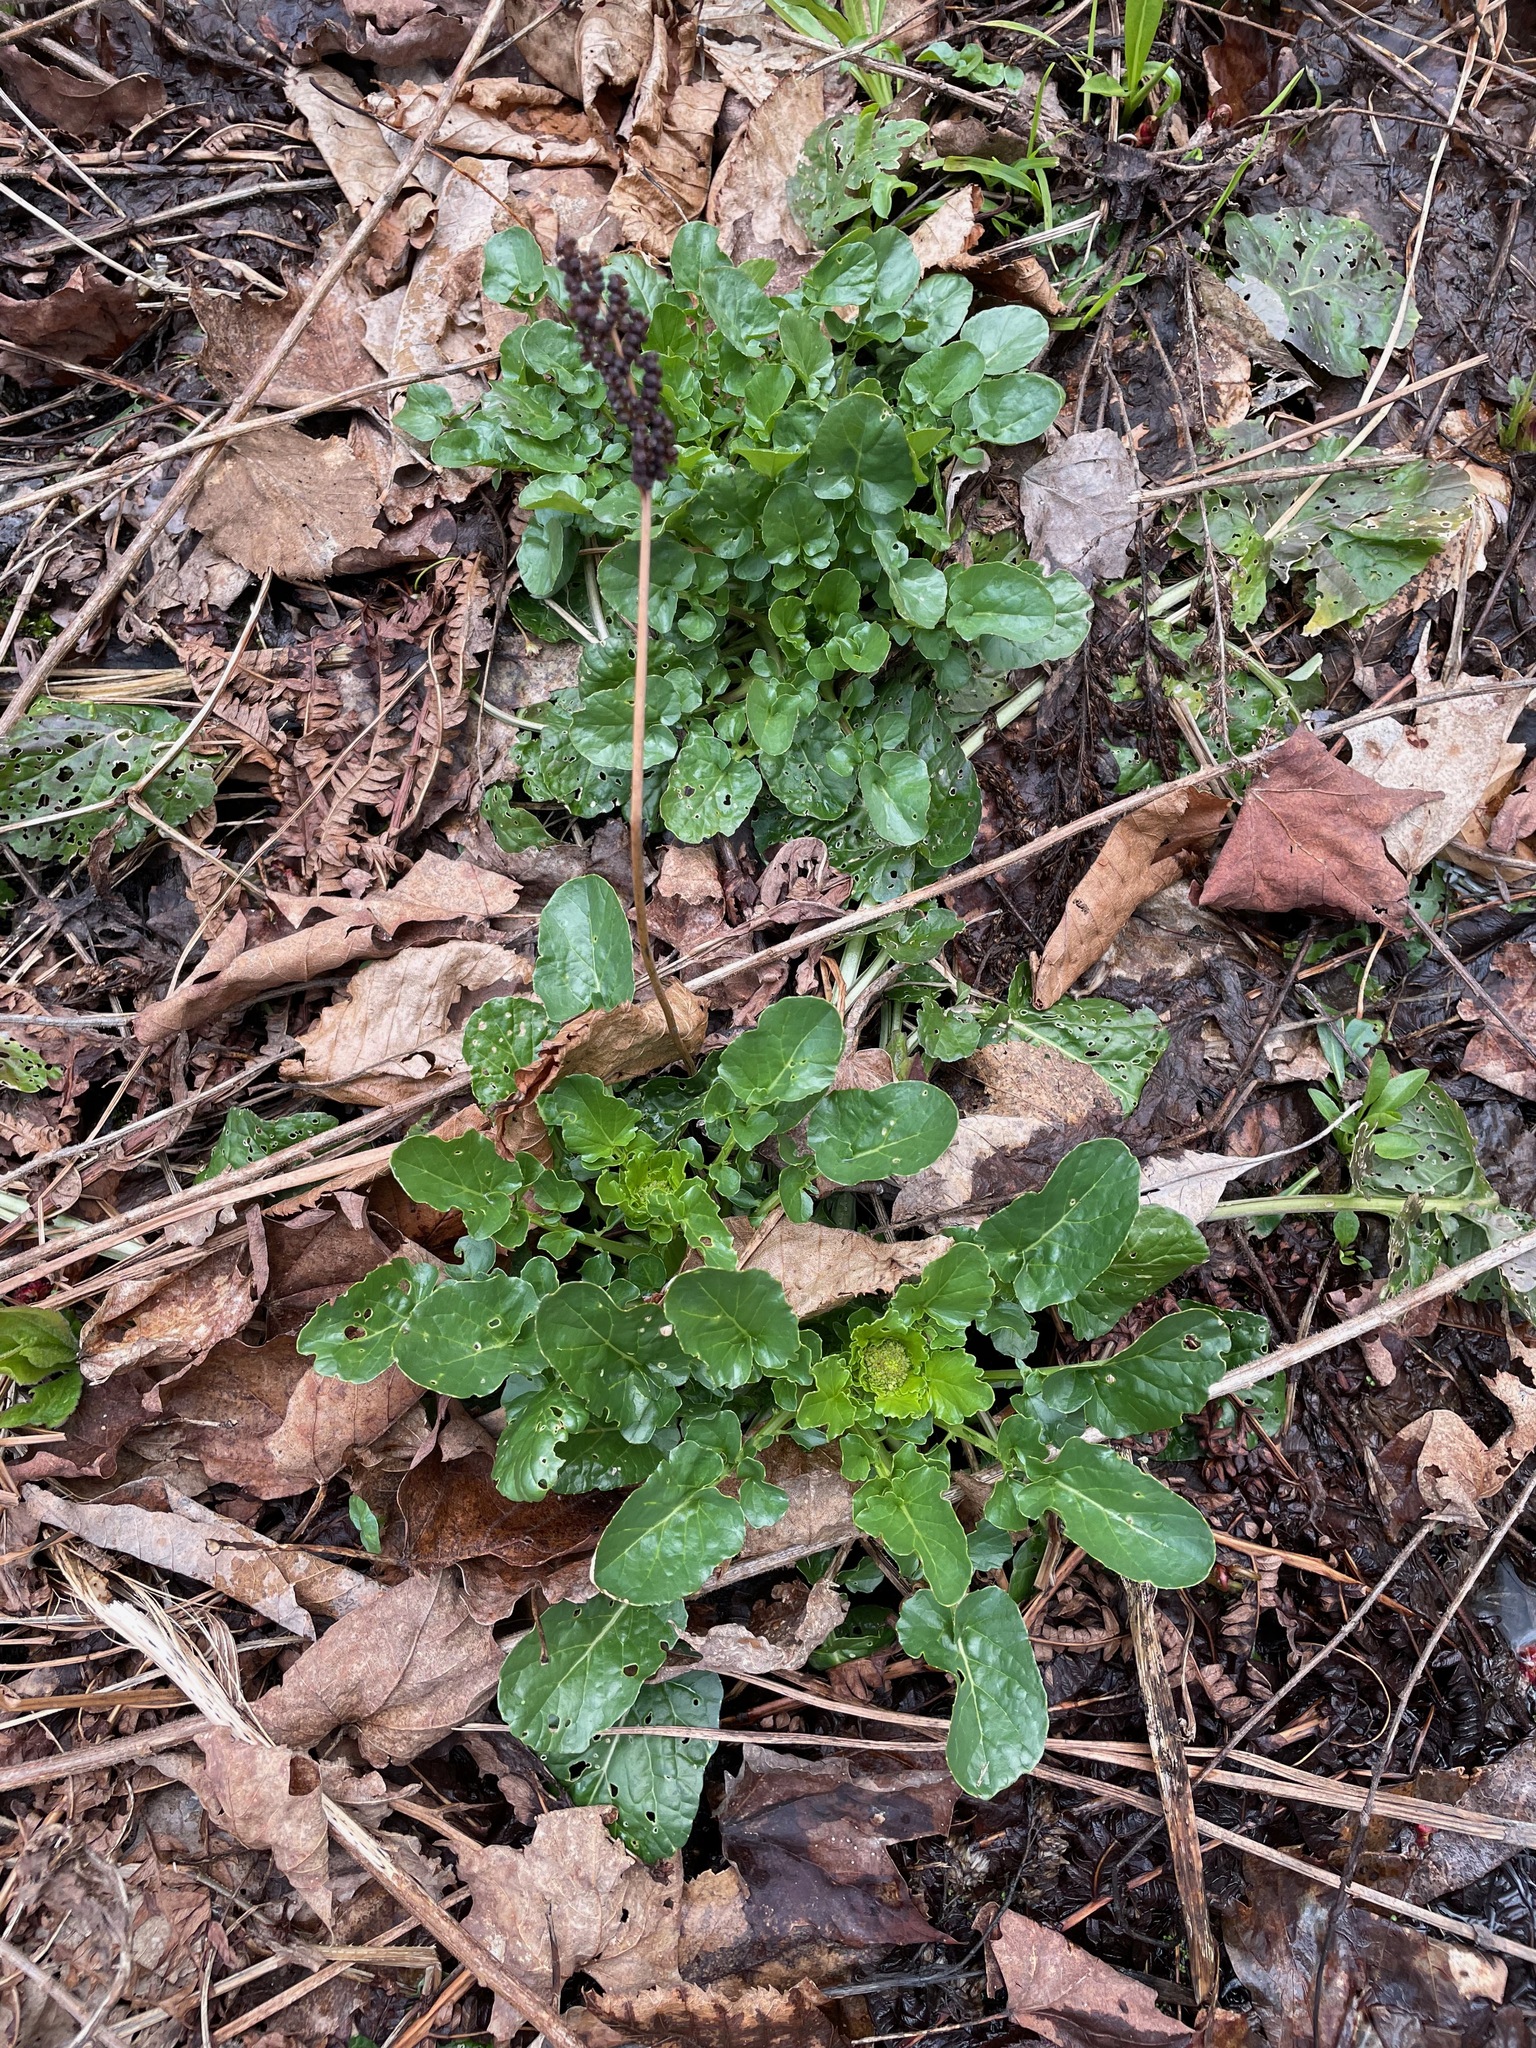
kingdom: Plantae
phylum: Tracheophyta
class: Magnoliopsida
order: Brassicales
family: Brassicaceae
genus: Barbarea
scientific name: Barbarea vulgaris
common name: Cressy-greens
